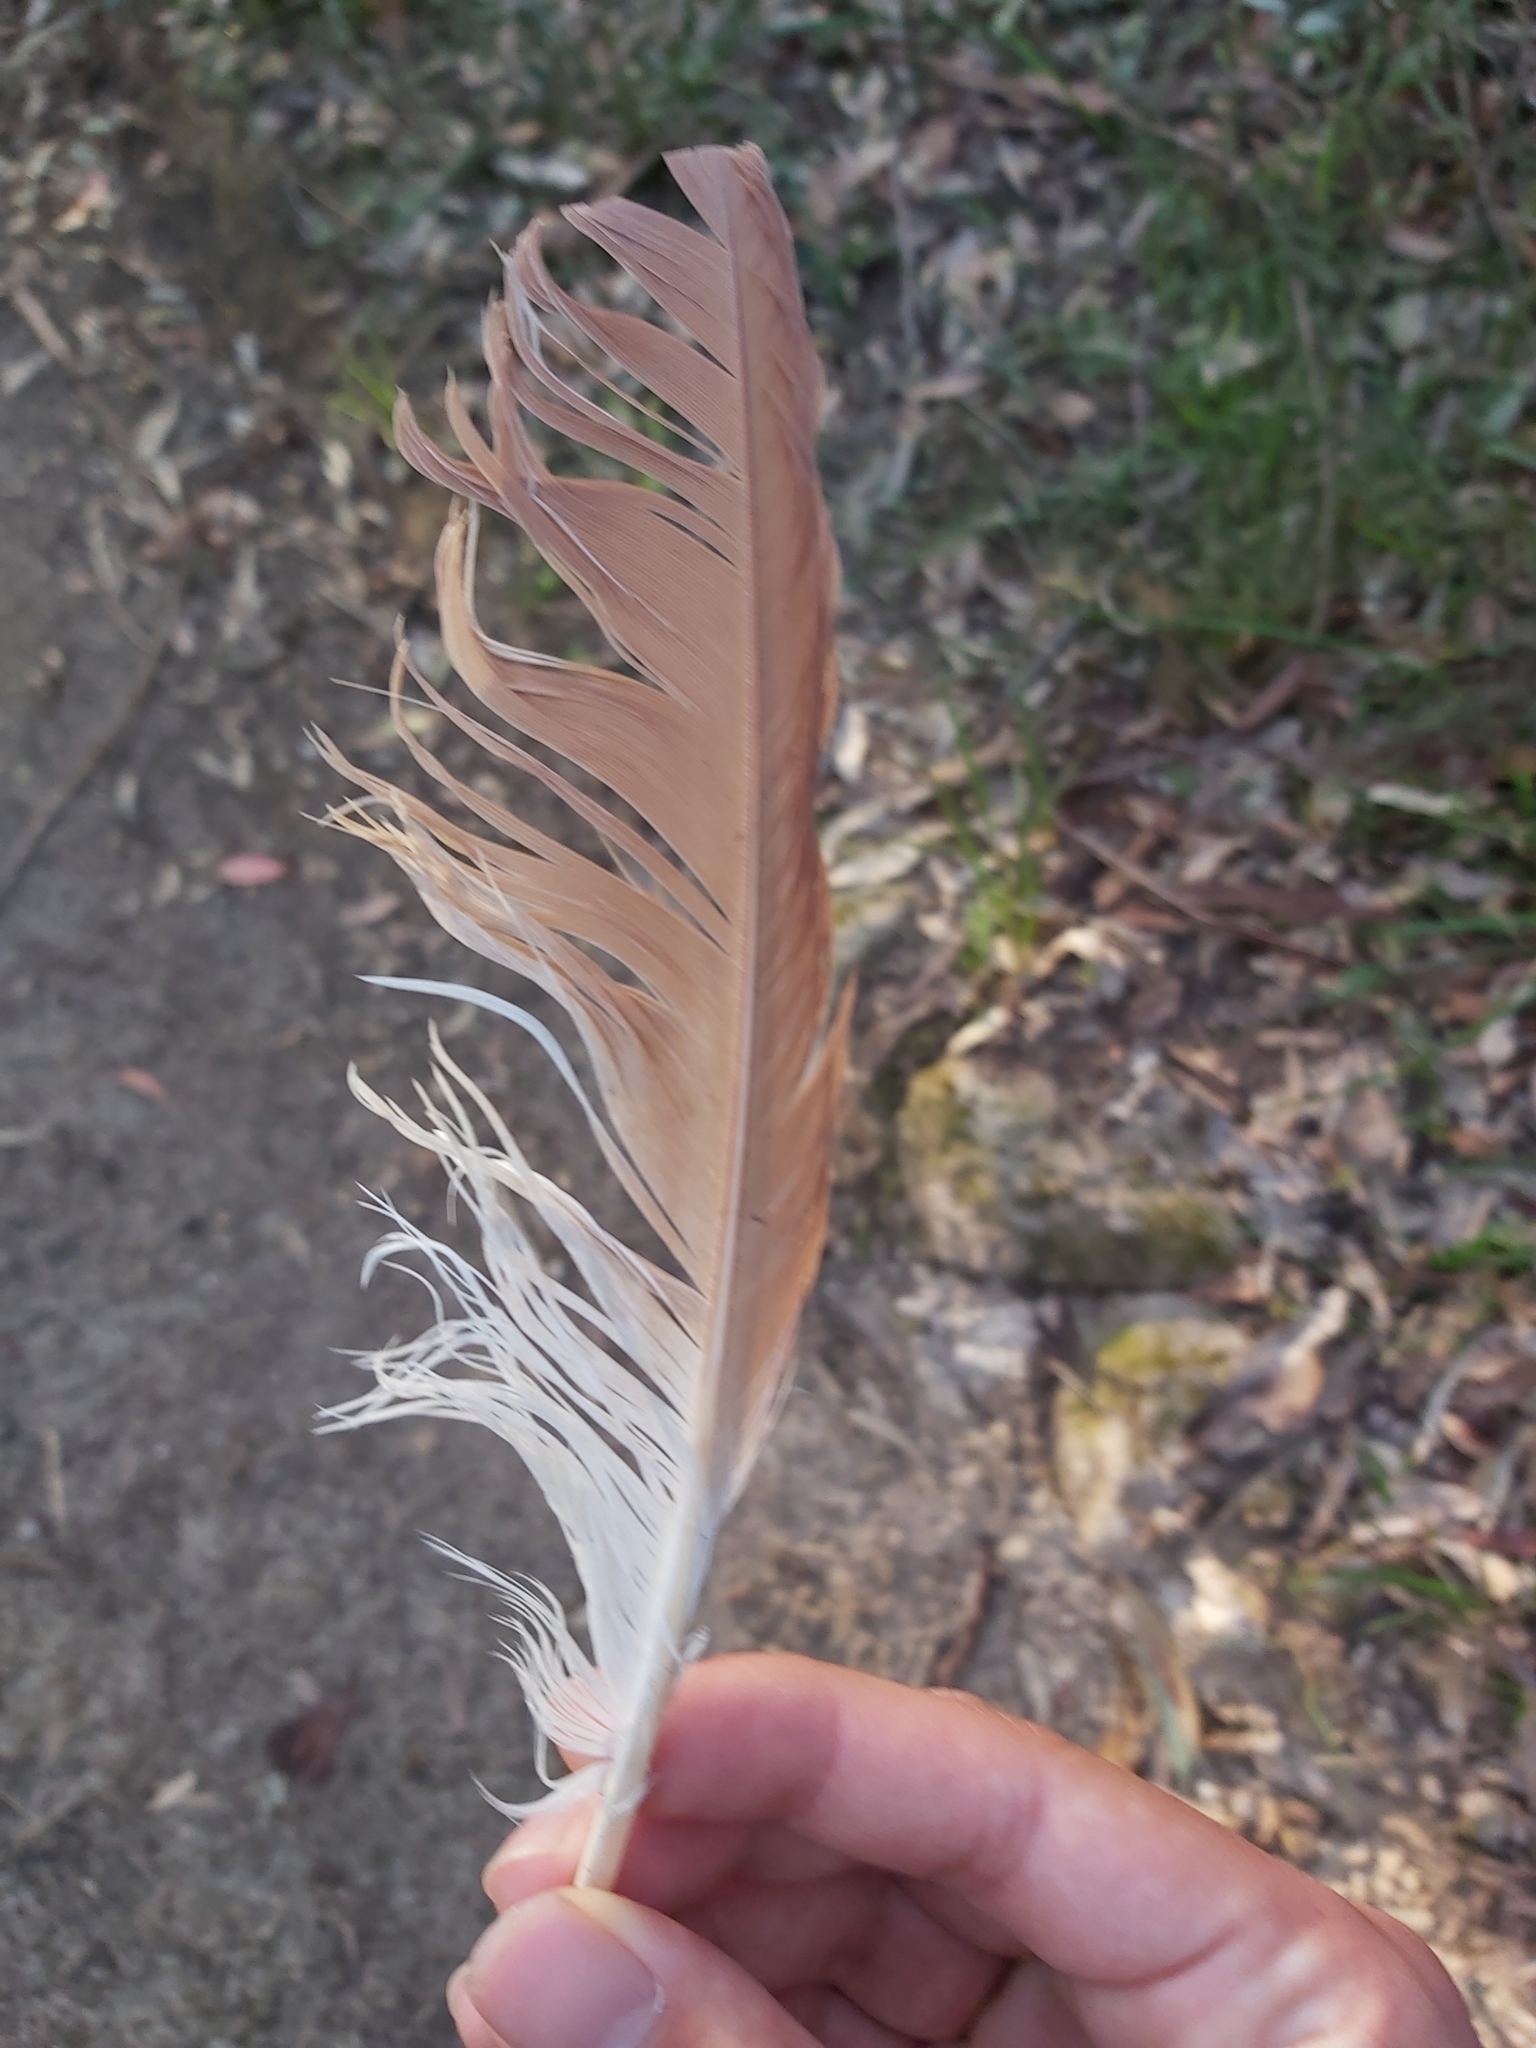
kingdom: Animalia
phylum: Chordata
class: Aves
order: Pelecaniformes
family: Ardeidae
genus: Nycticorax
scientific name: Nycticorax caledonicus
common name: Rufous night-heron
